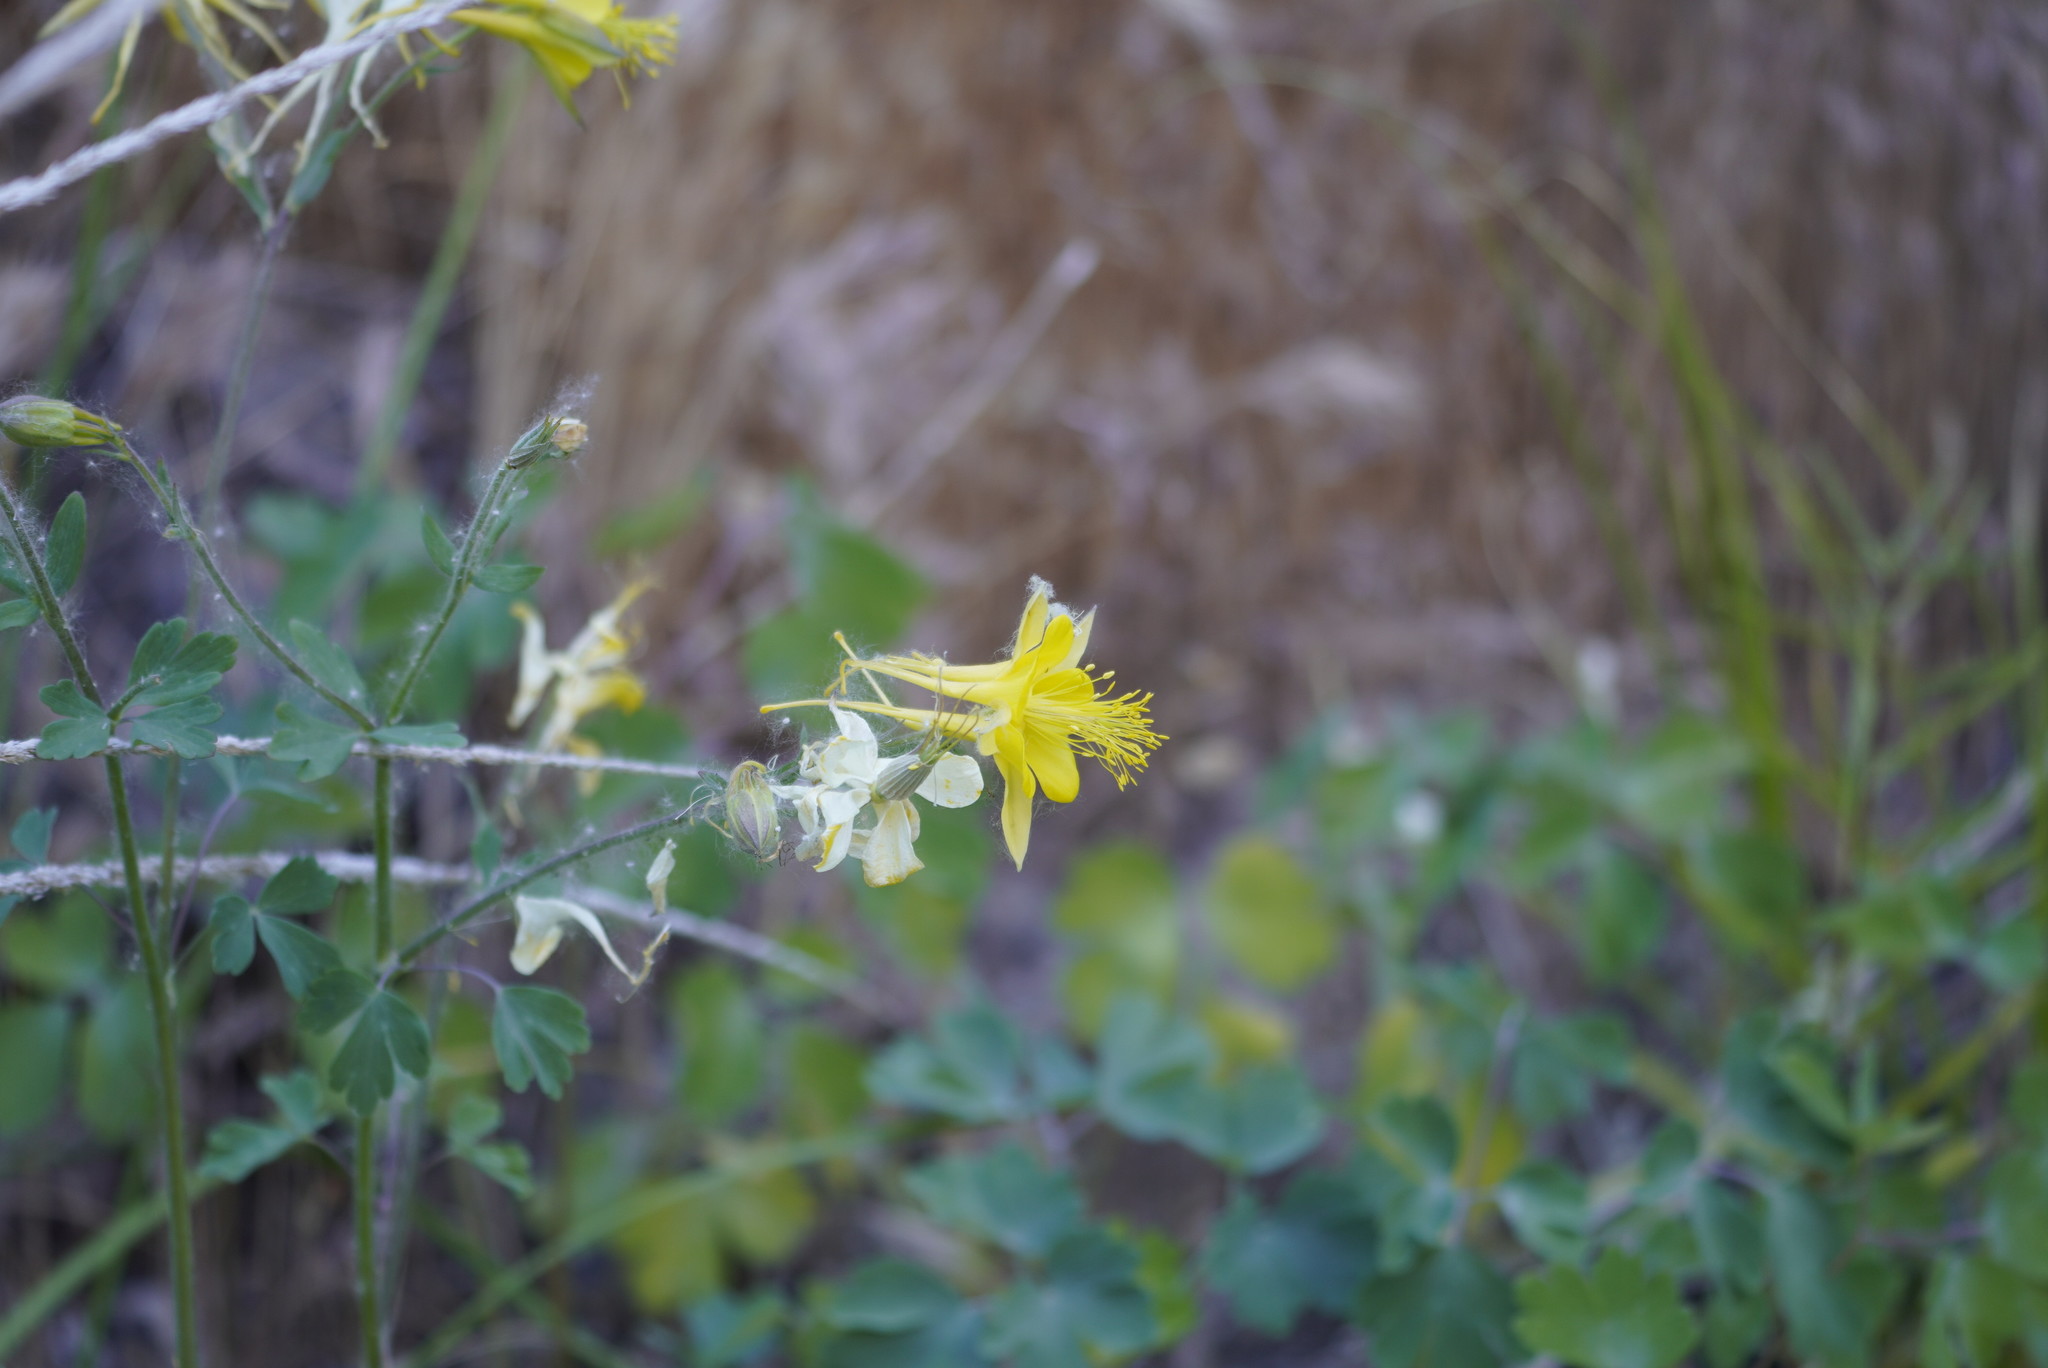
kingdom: Plantae
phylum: Tracheophyta
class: Magnoliopsida
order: Ranunculales
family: Ranunculaceae
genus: Aquilegia
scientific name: Aquilegia chrysantha
